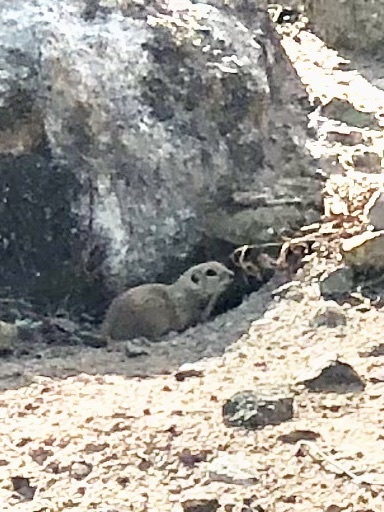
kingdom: Animalia
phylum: Chordata
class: Mammalia
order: Rodentia
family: Sciuridae
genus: Xerospermophilus
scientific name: Xerospermophilus tereticaudus
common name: Round-tailed ground squirrel
